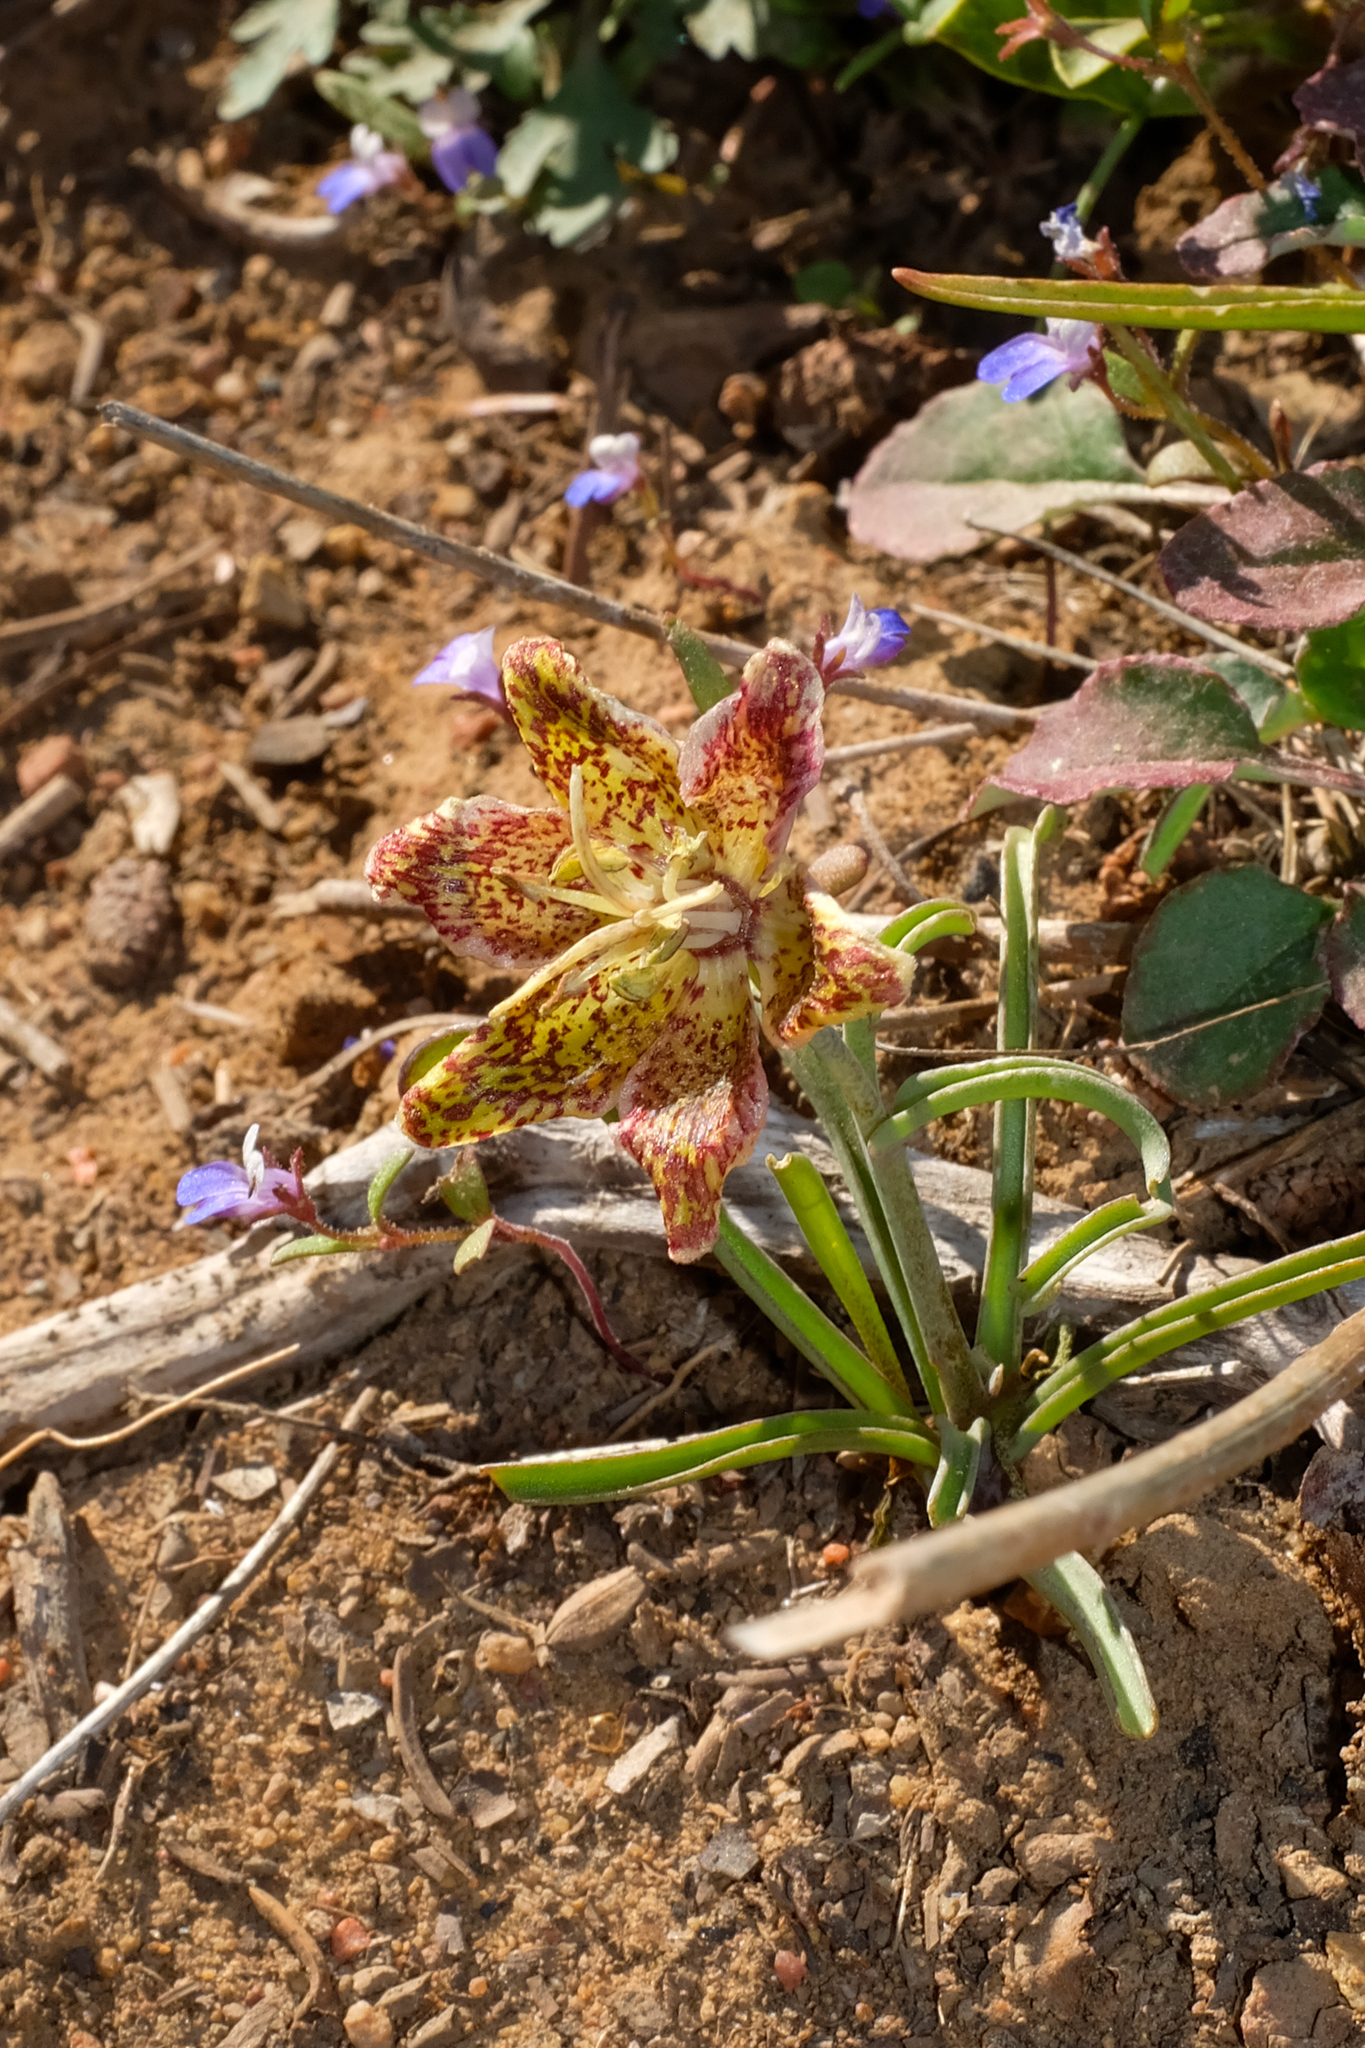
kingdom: Plantae
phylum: Tracheophyta
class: Liliopsida
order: Liliales
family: Liliaceae
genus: Fritillaria
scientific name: Fritillaria pinetorum
